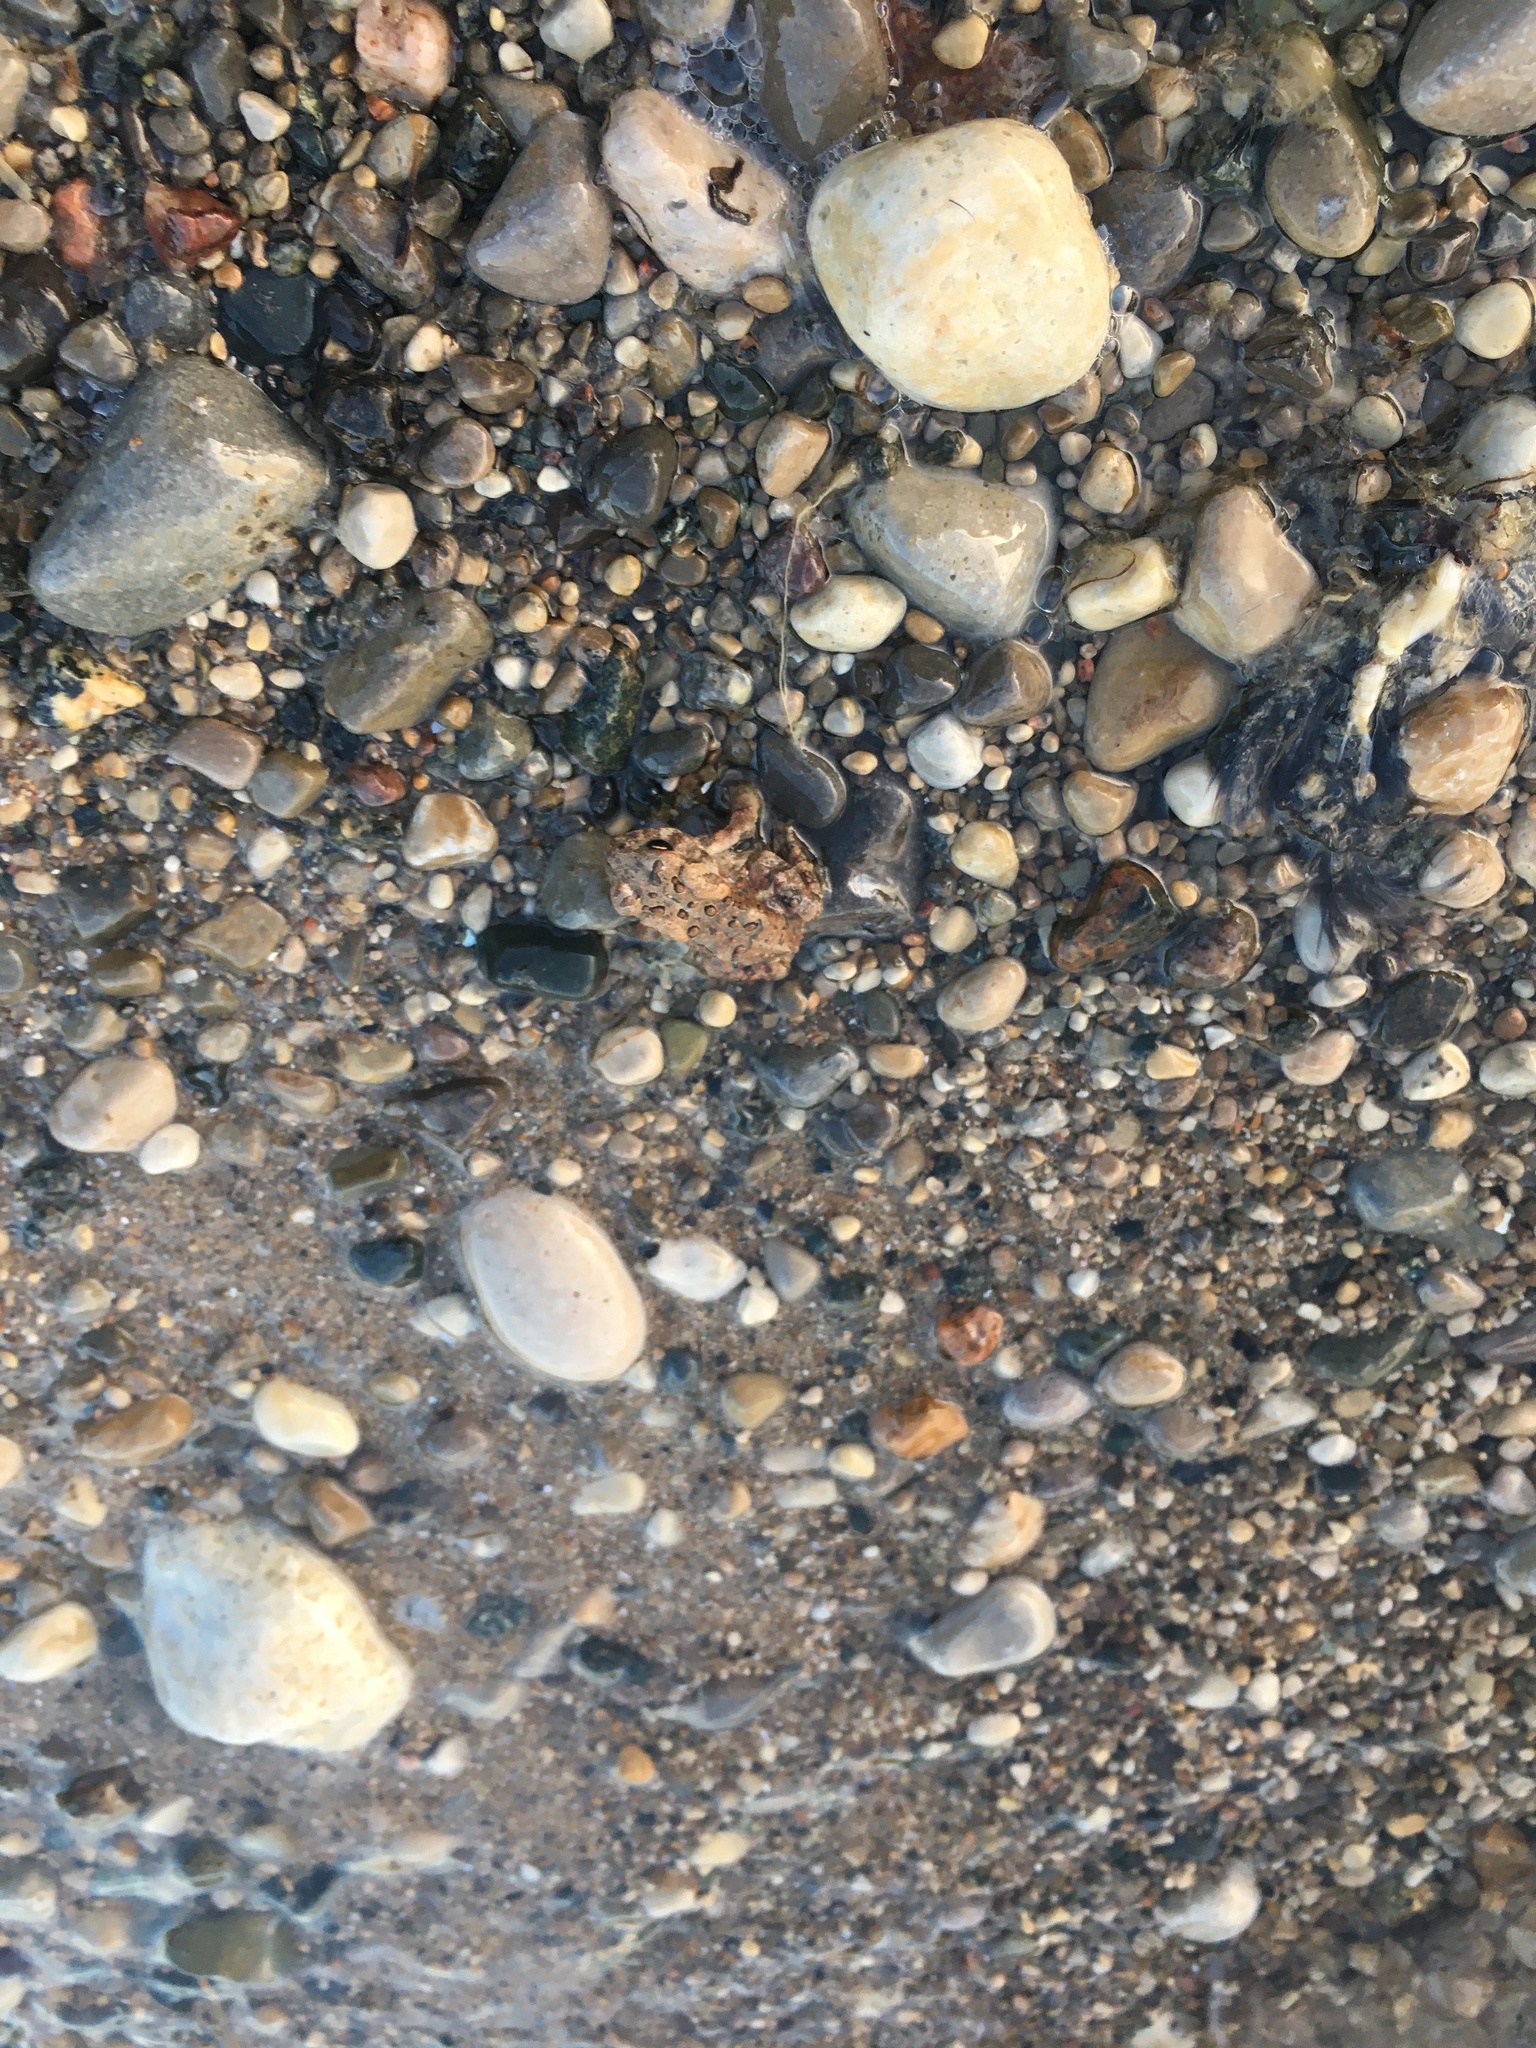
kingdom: Animalia
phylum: Chordata
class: Amphibia
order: Anura
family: Bufonidae
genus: Anaxyrus
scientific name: Anaxyrus americanus
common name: American toad
